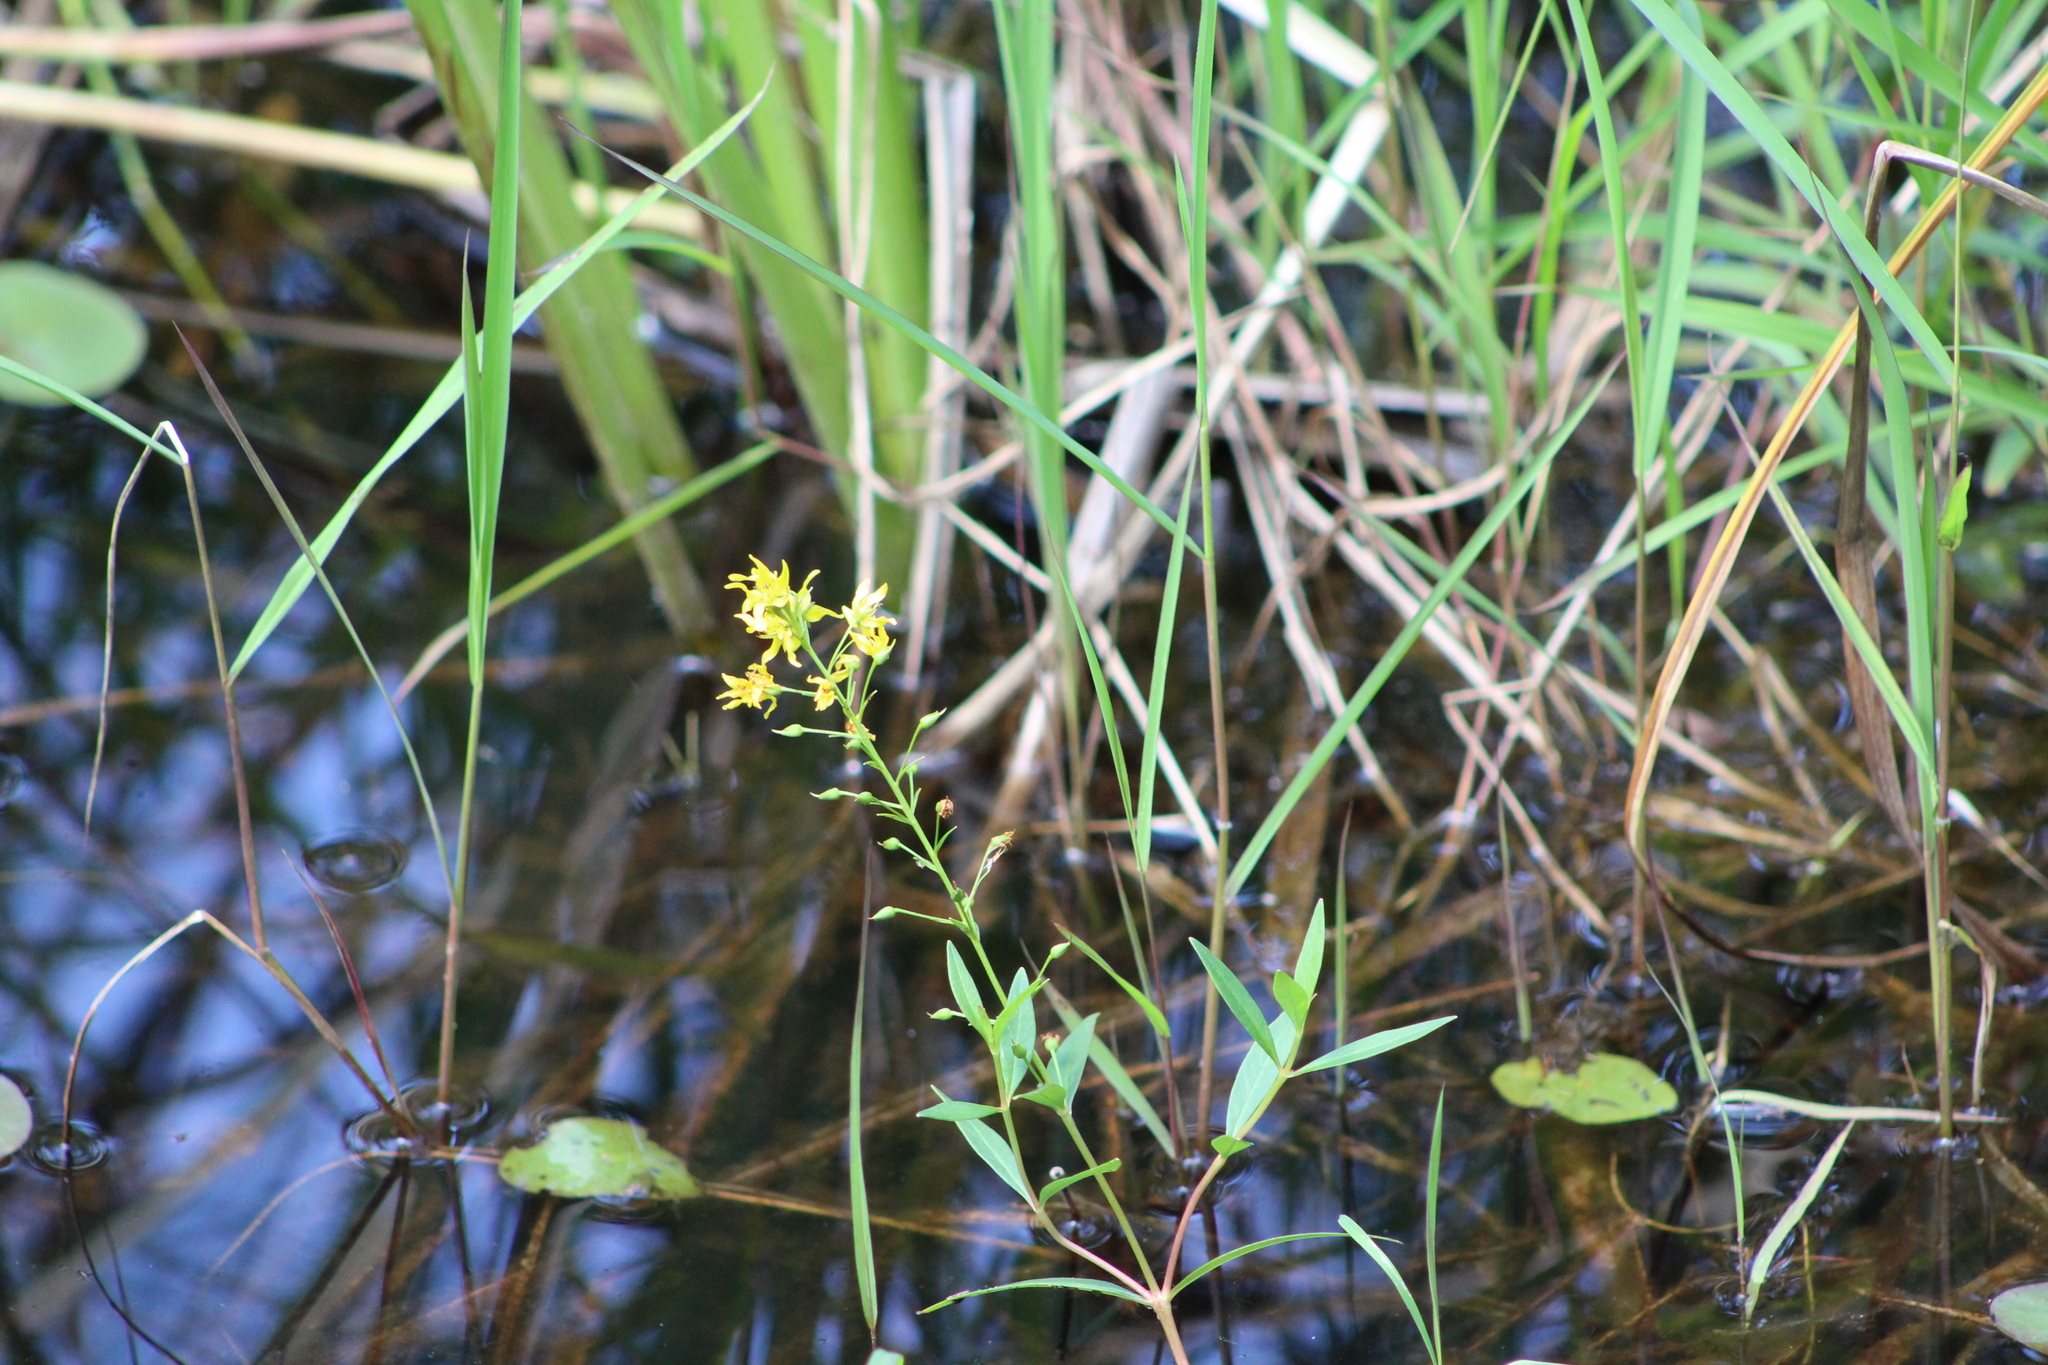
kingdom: Plantae
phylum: Tracheophyta
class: Magnoliopsida
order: Ericales
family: Primulaceae
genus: Lysimachia
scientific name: Lysimachia terrestris
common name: Lake loosestrife
